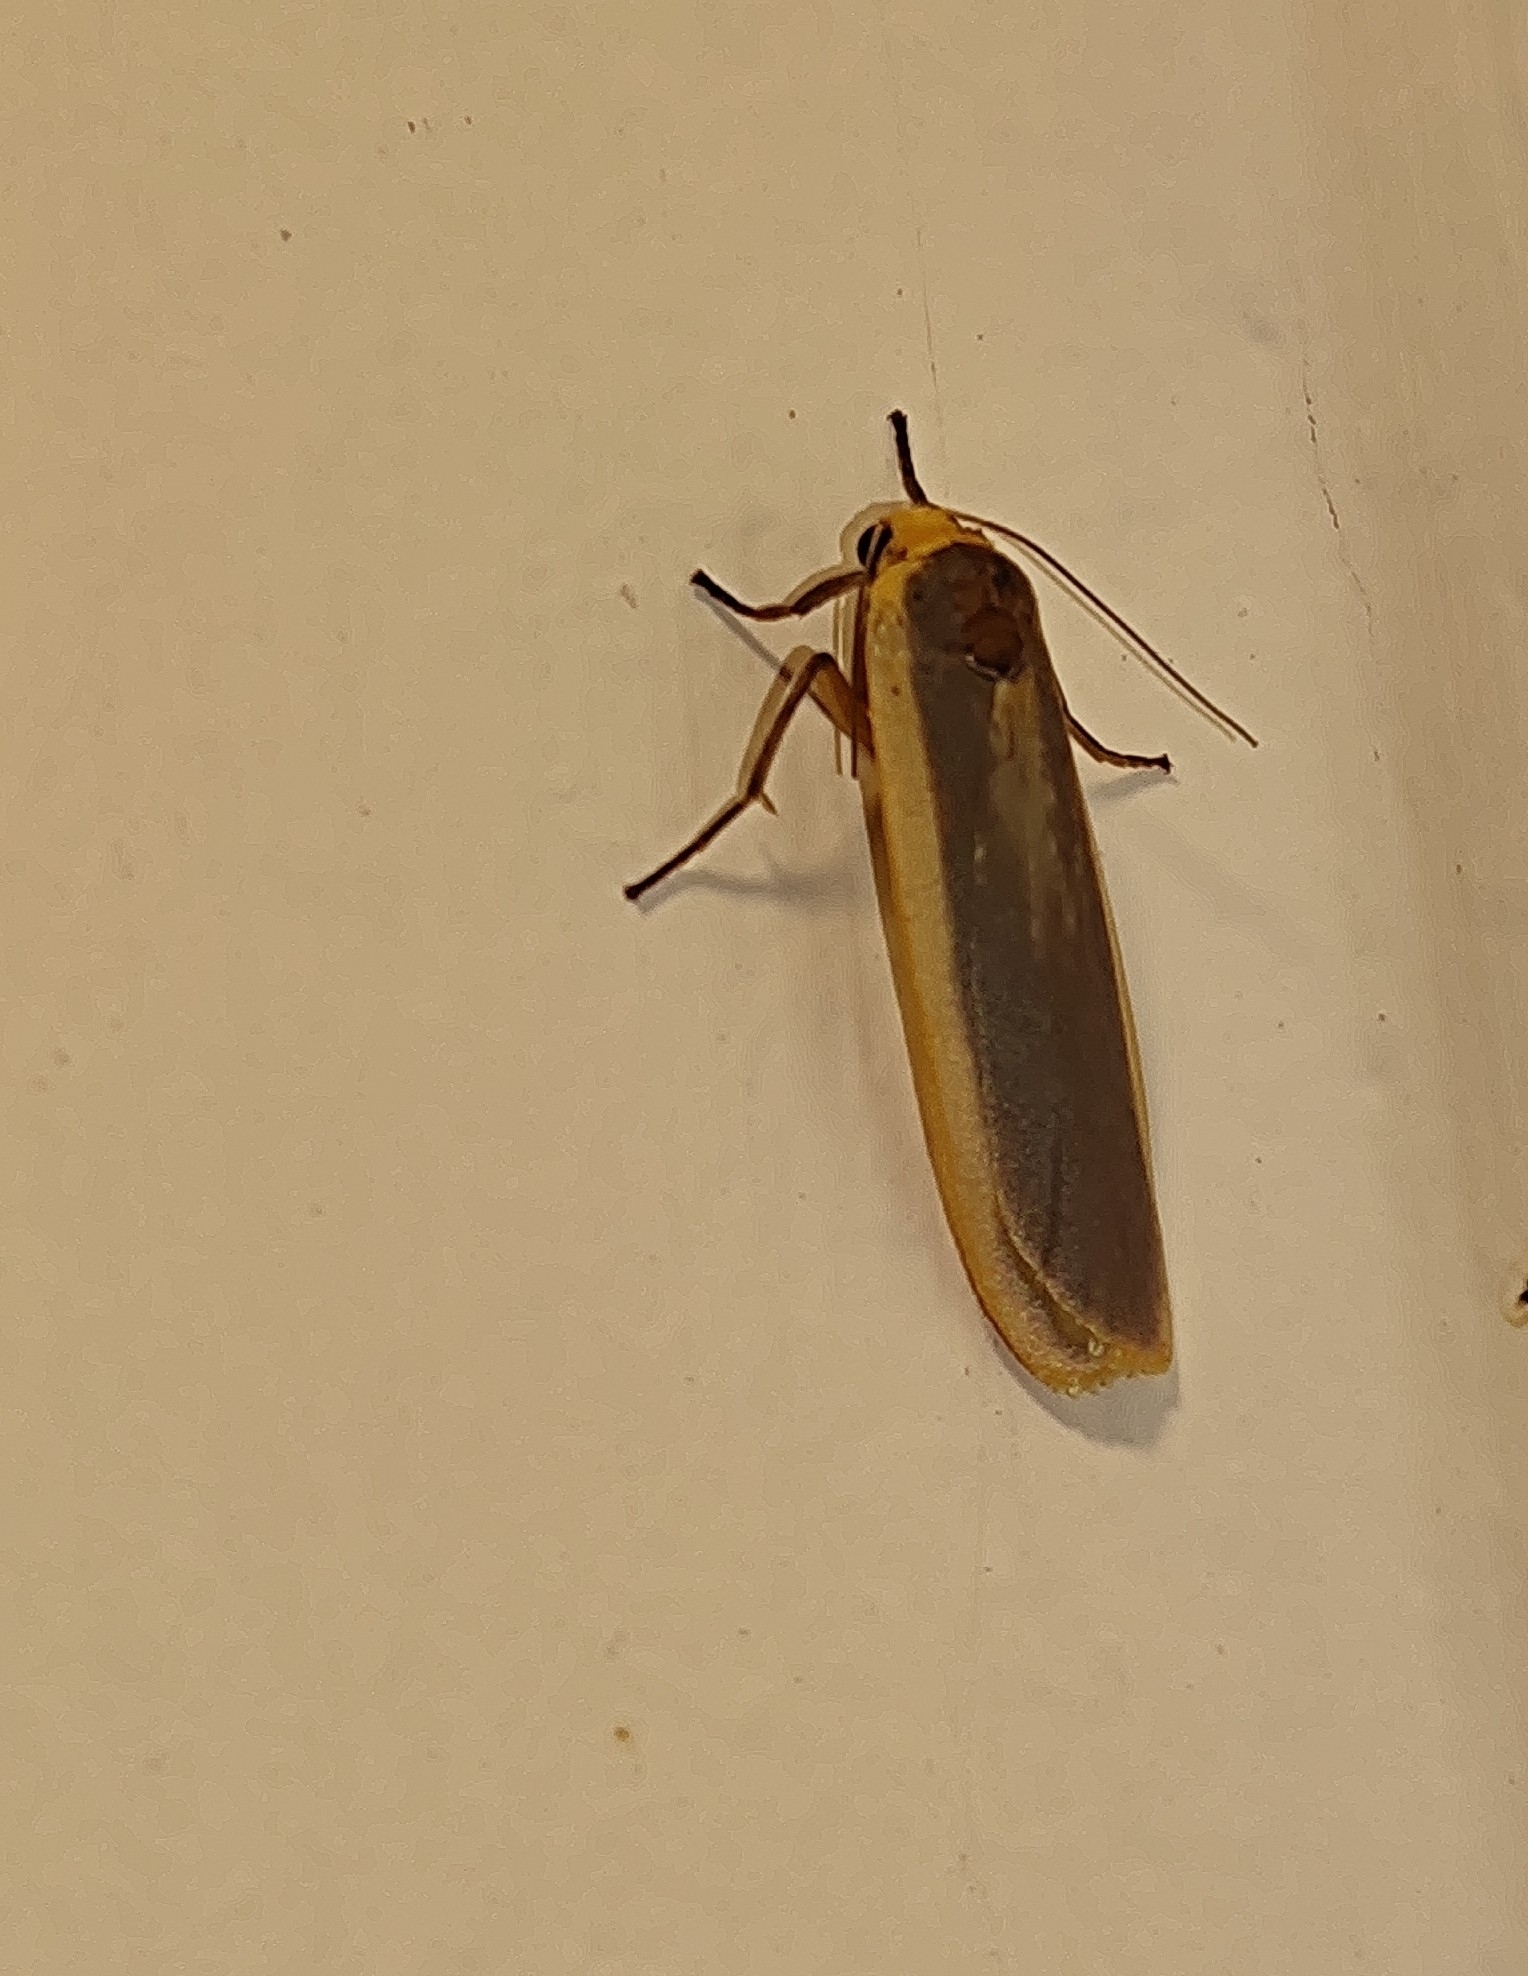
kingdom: Animalia
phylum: Arthropoda
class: Insecta
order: Lepidoptera
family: Erebidae
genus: Brunia
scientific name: Brunia antica
